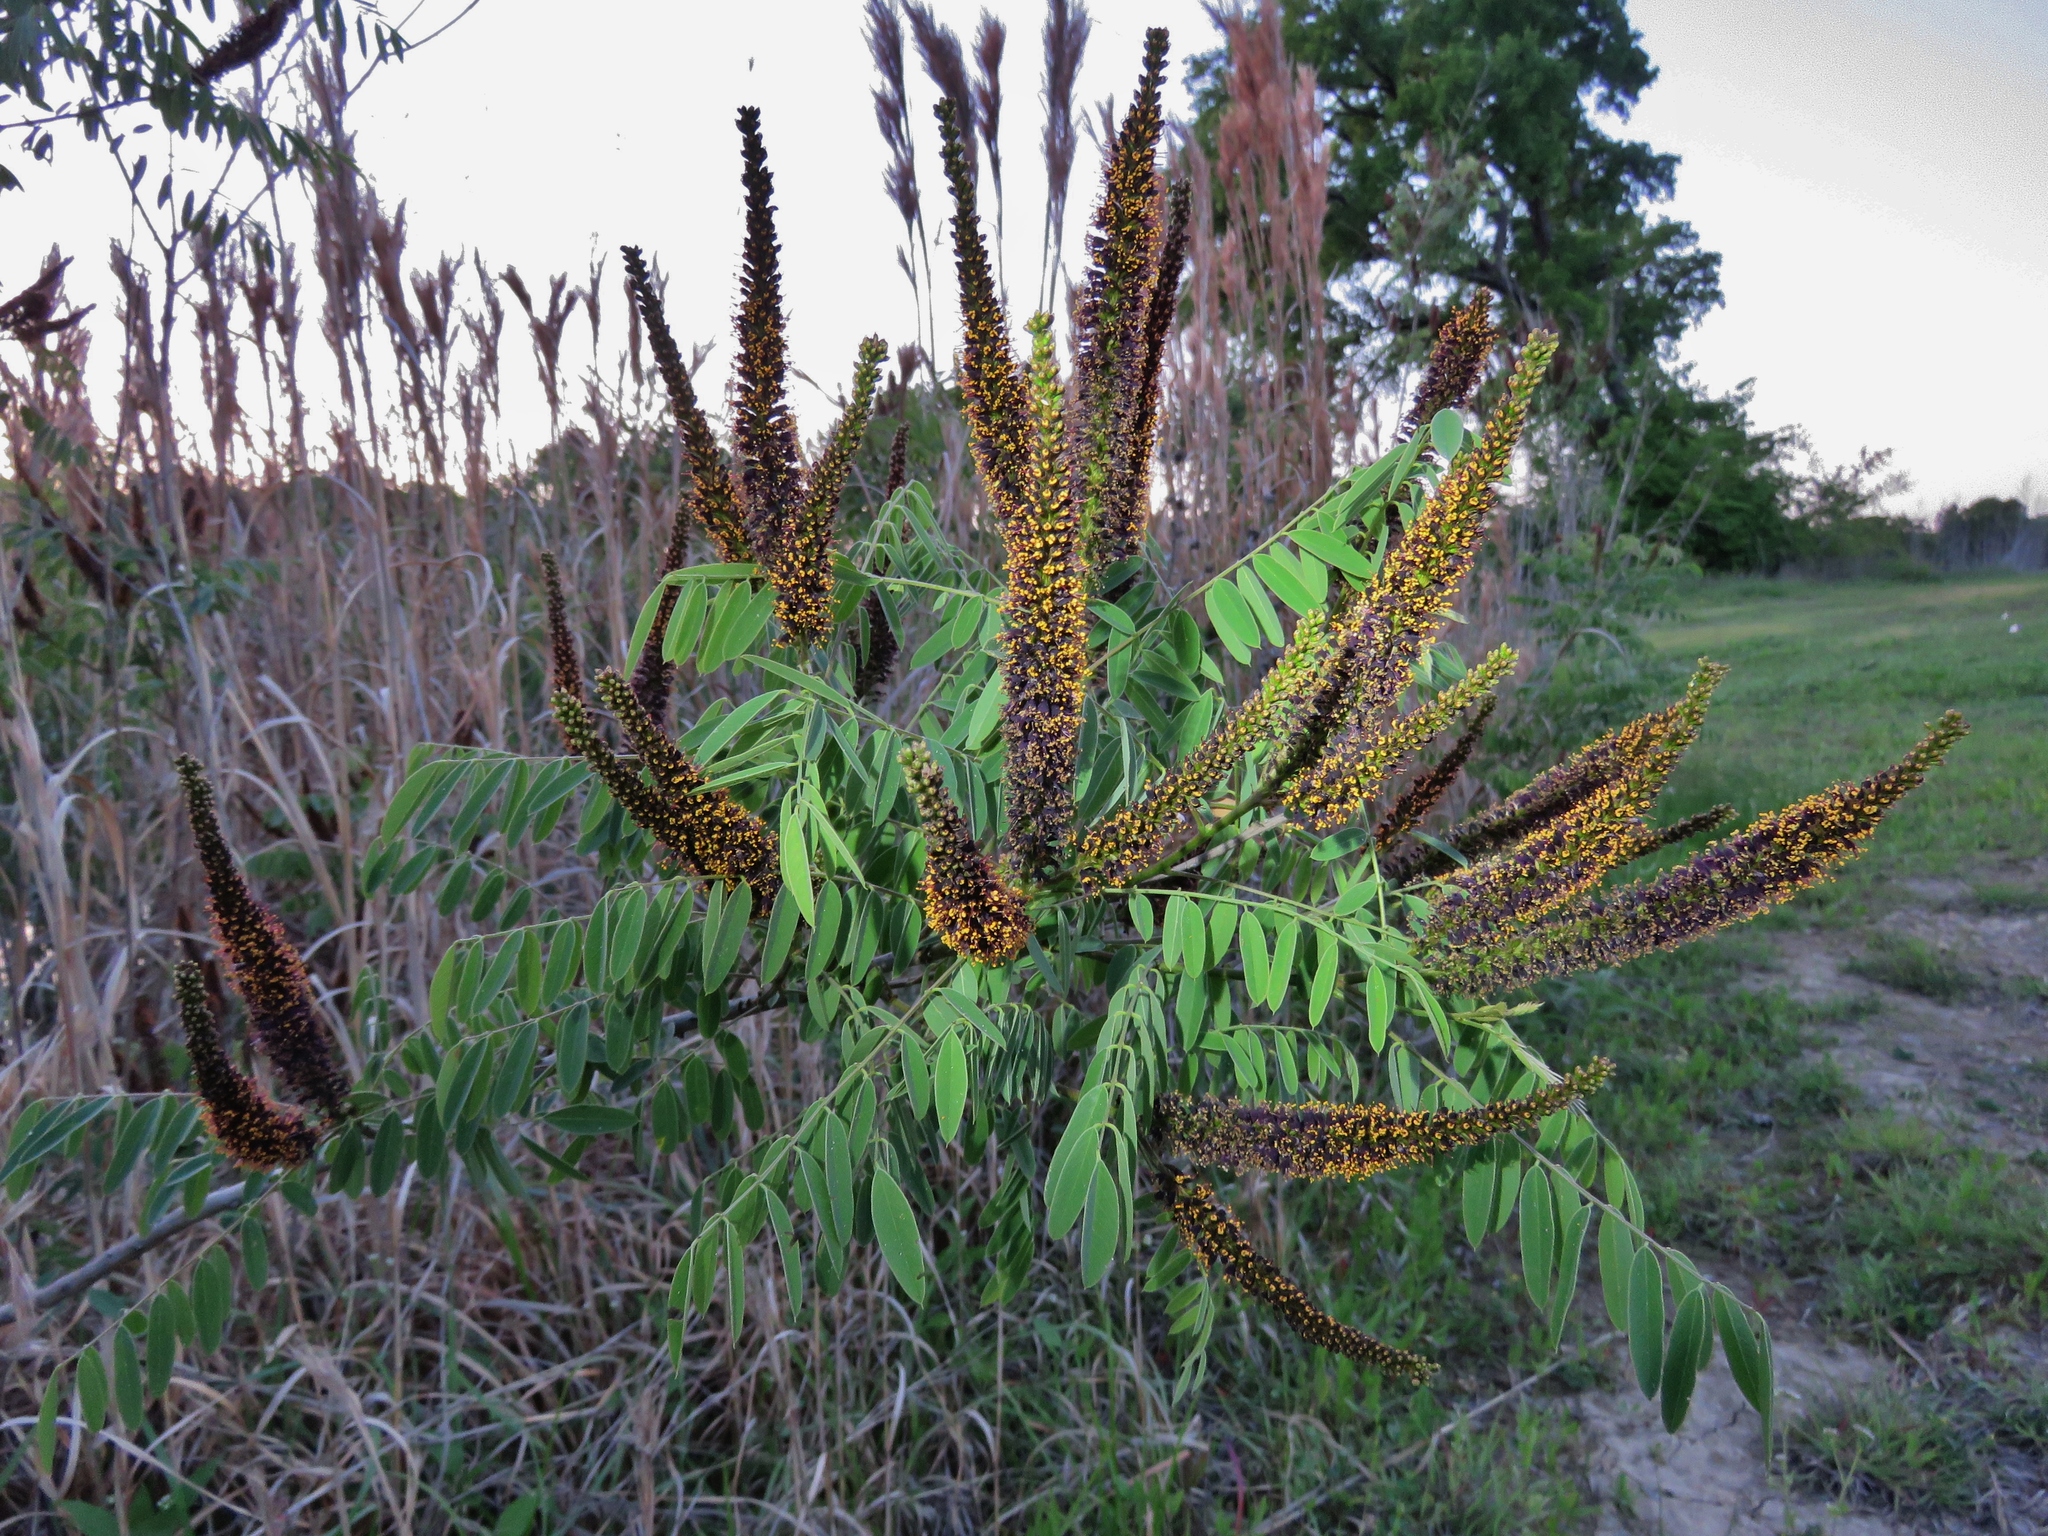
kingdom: Plantae
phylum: Tracheophyta
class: Magnoliopsida
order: Fabales
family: Fabaceae
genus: Amorpha
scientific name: Amorpha fruticosa
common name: False indigo
